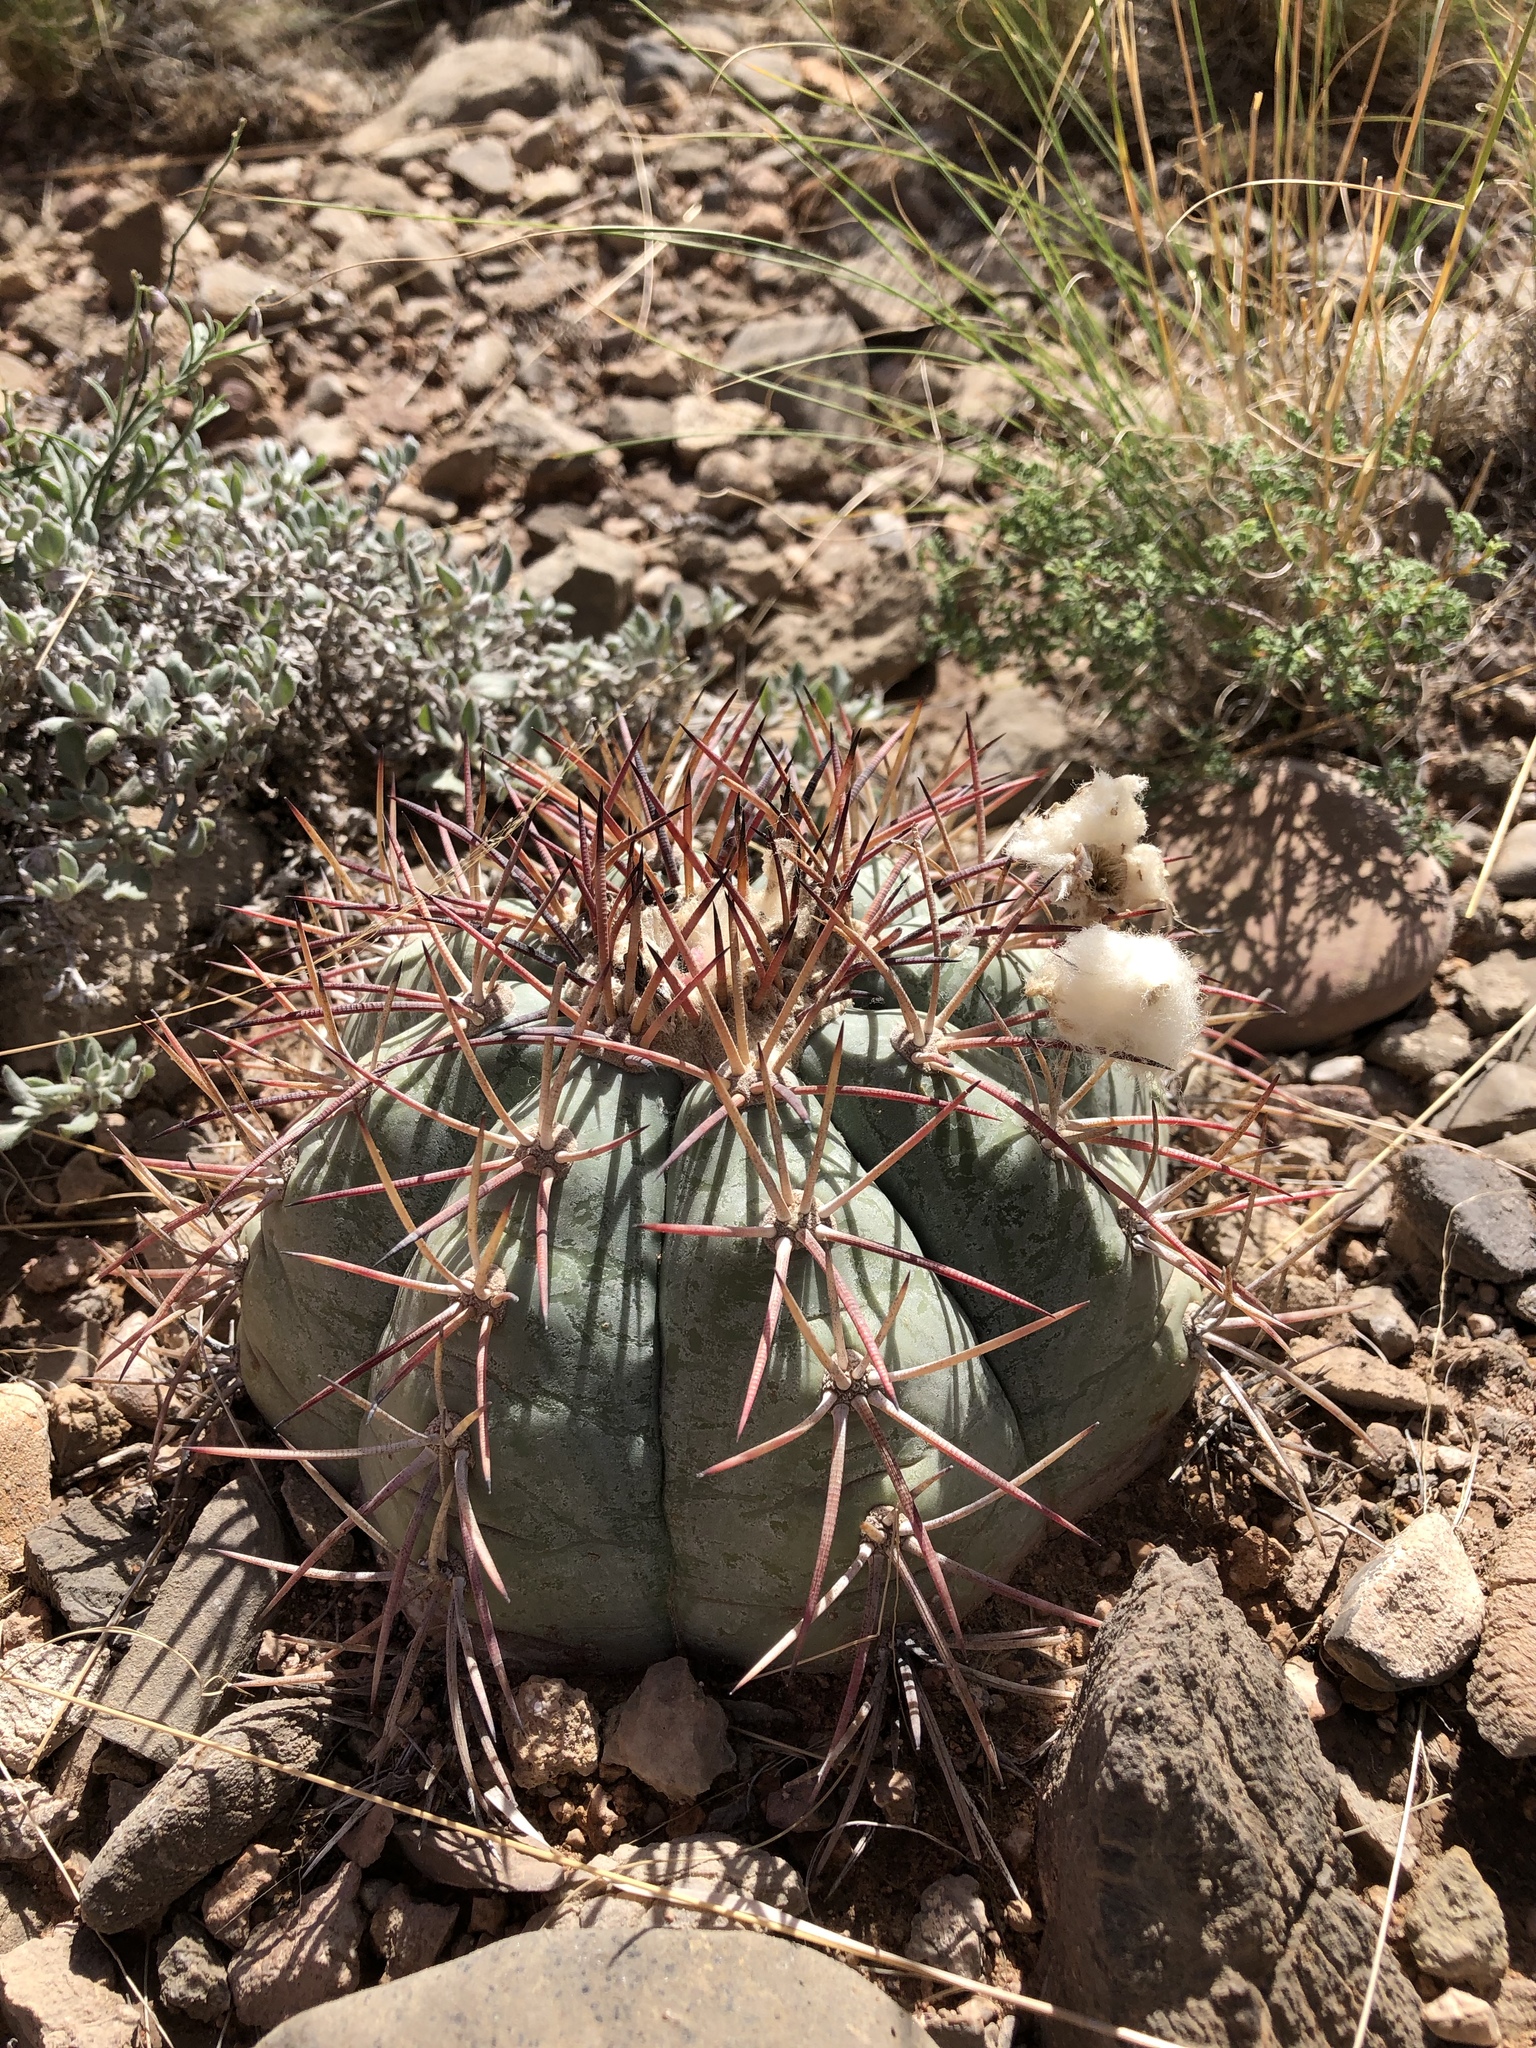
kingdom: Plantae
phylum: Tracheophyta
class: Magnoliopsida
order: Caryophyllales
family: Cactaceae
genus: Echinocactus
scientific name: Echinocactus horizonthalonius
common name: Devilshead
